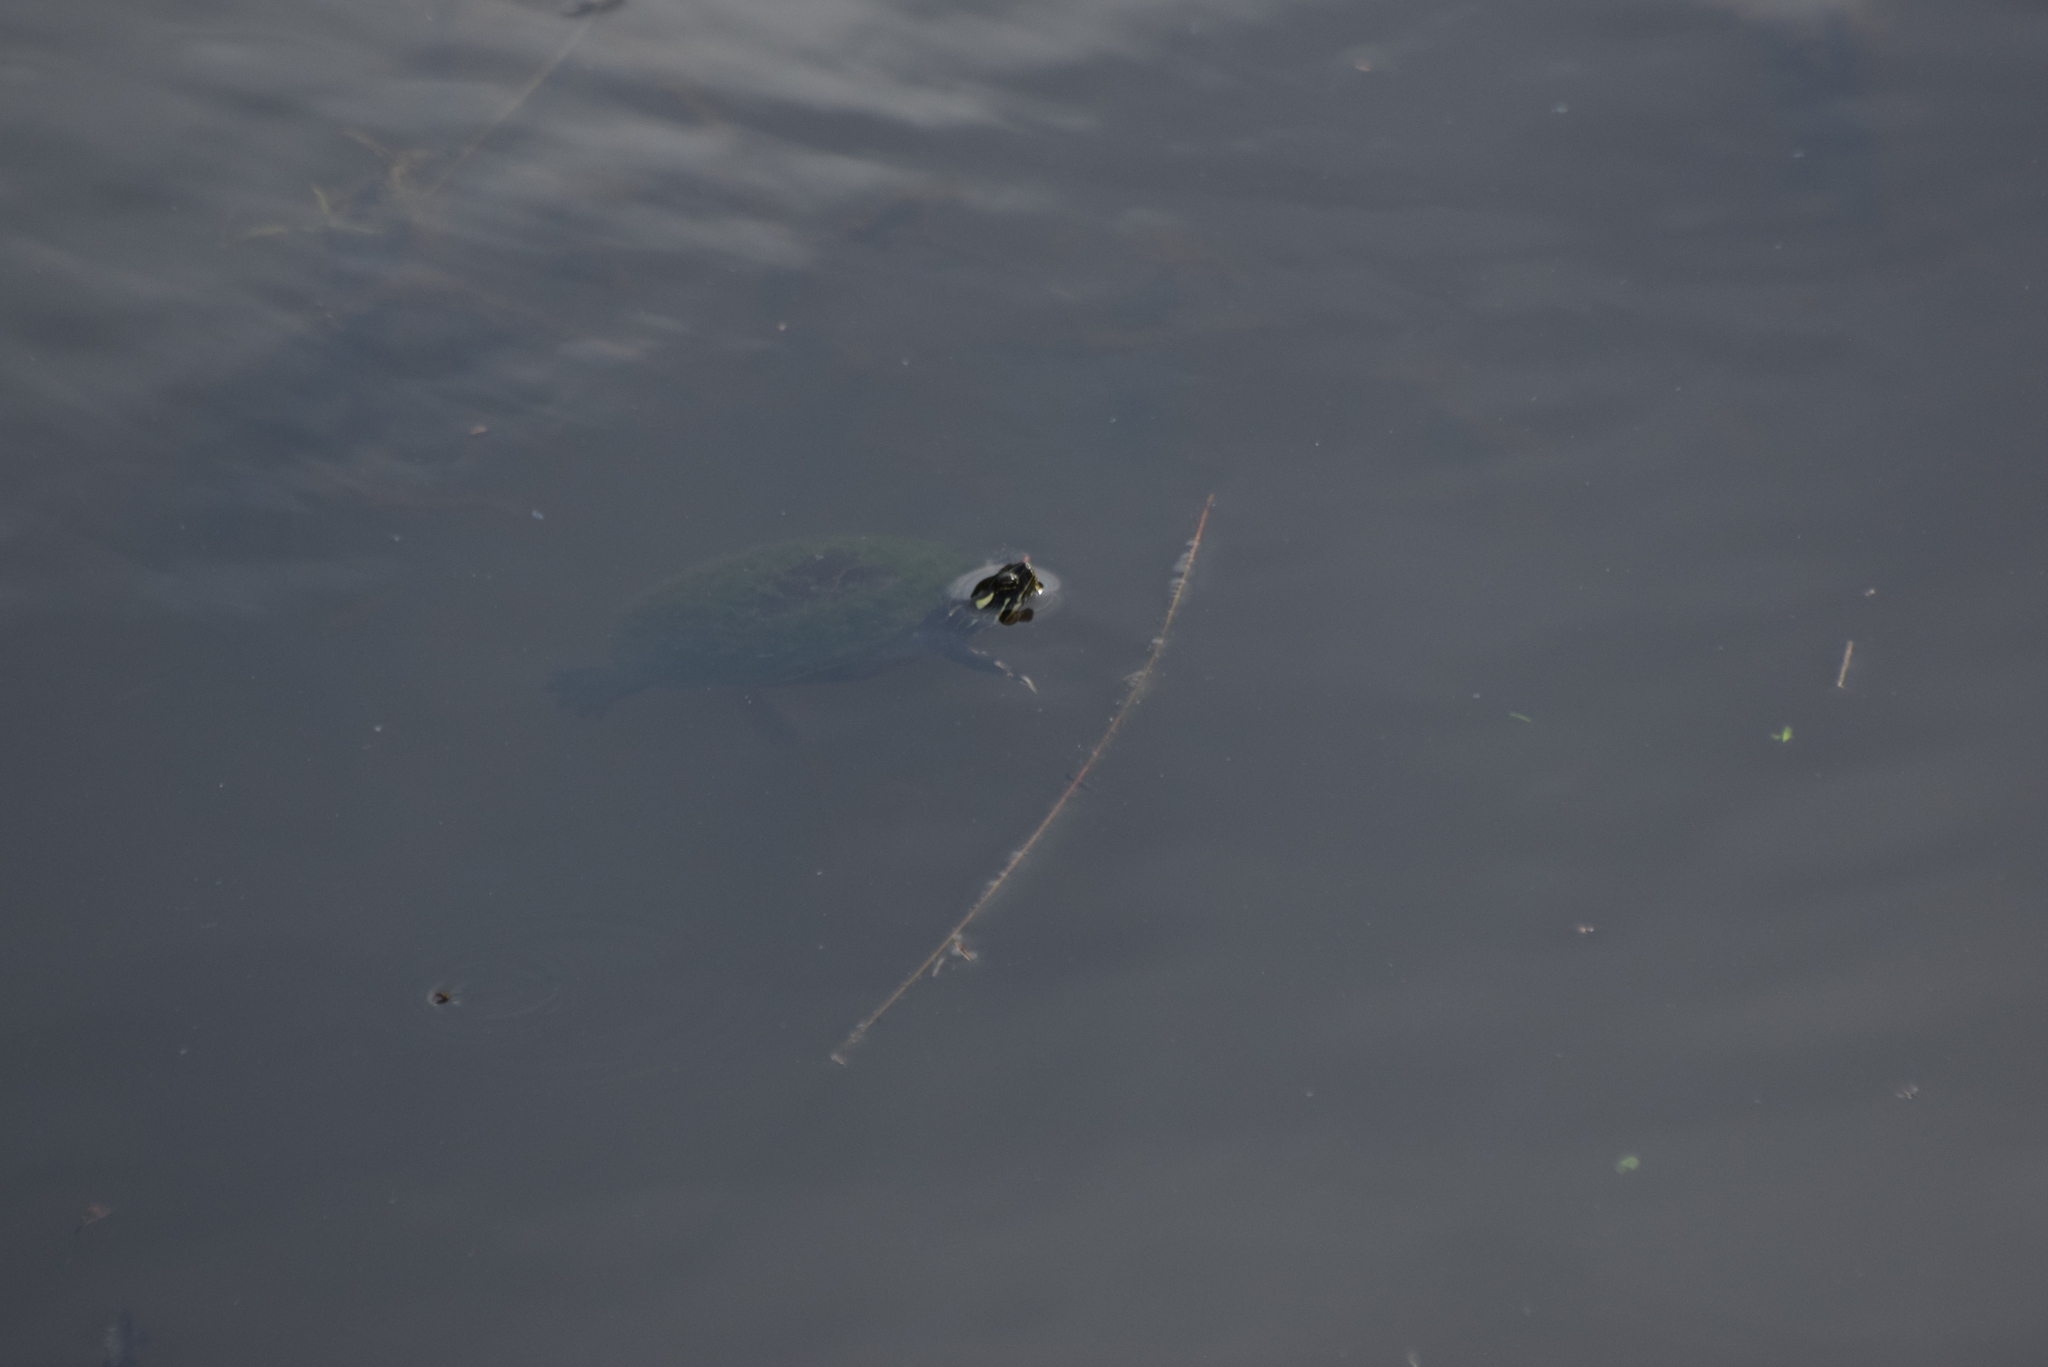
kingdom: Animalia
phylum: Chordata
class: Testudines
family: Emydidae
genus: Chrysemys
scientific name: Chrysemys picta
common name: Painted turtle
